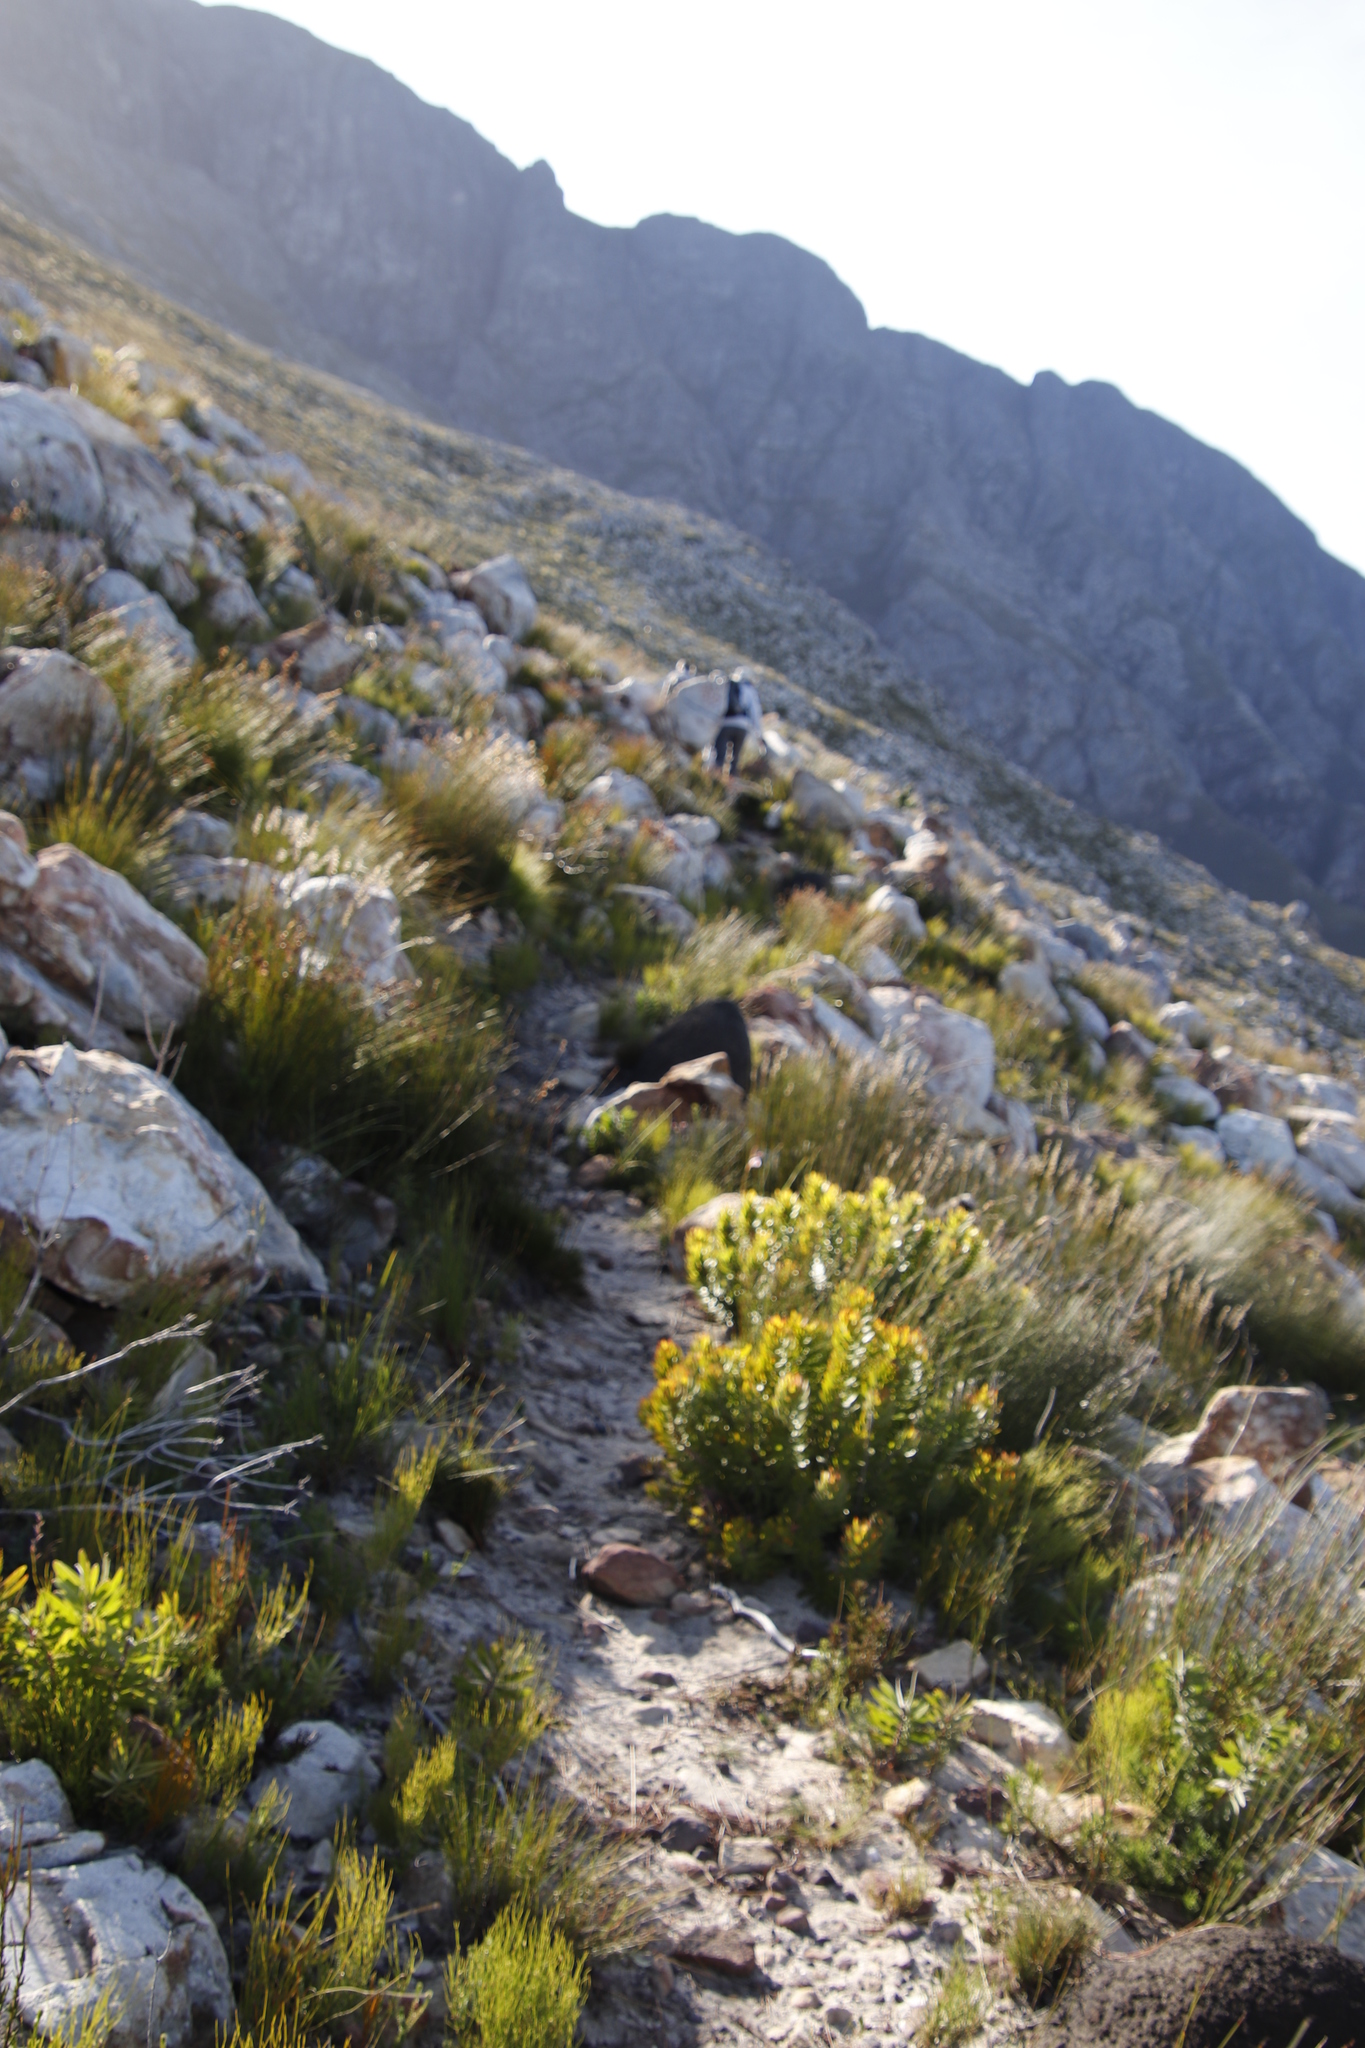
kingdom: Plantae
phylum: Tracheophyta
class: Magnoliopsida
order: Proteales
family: Proteaceae
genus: Mimetes
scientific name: Mimetes cucullatus
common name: Common pagoda
